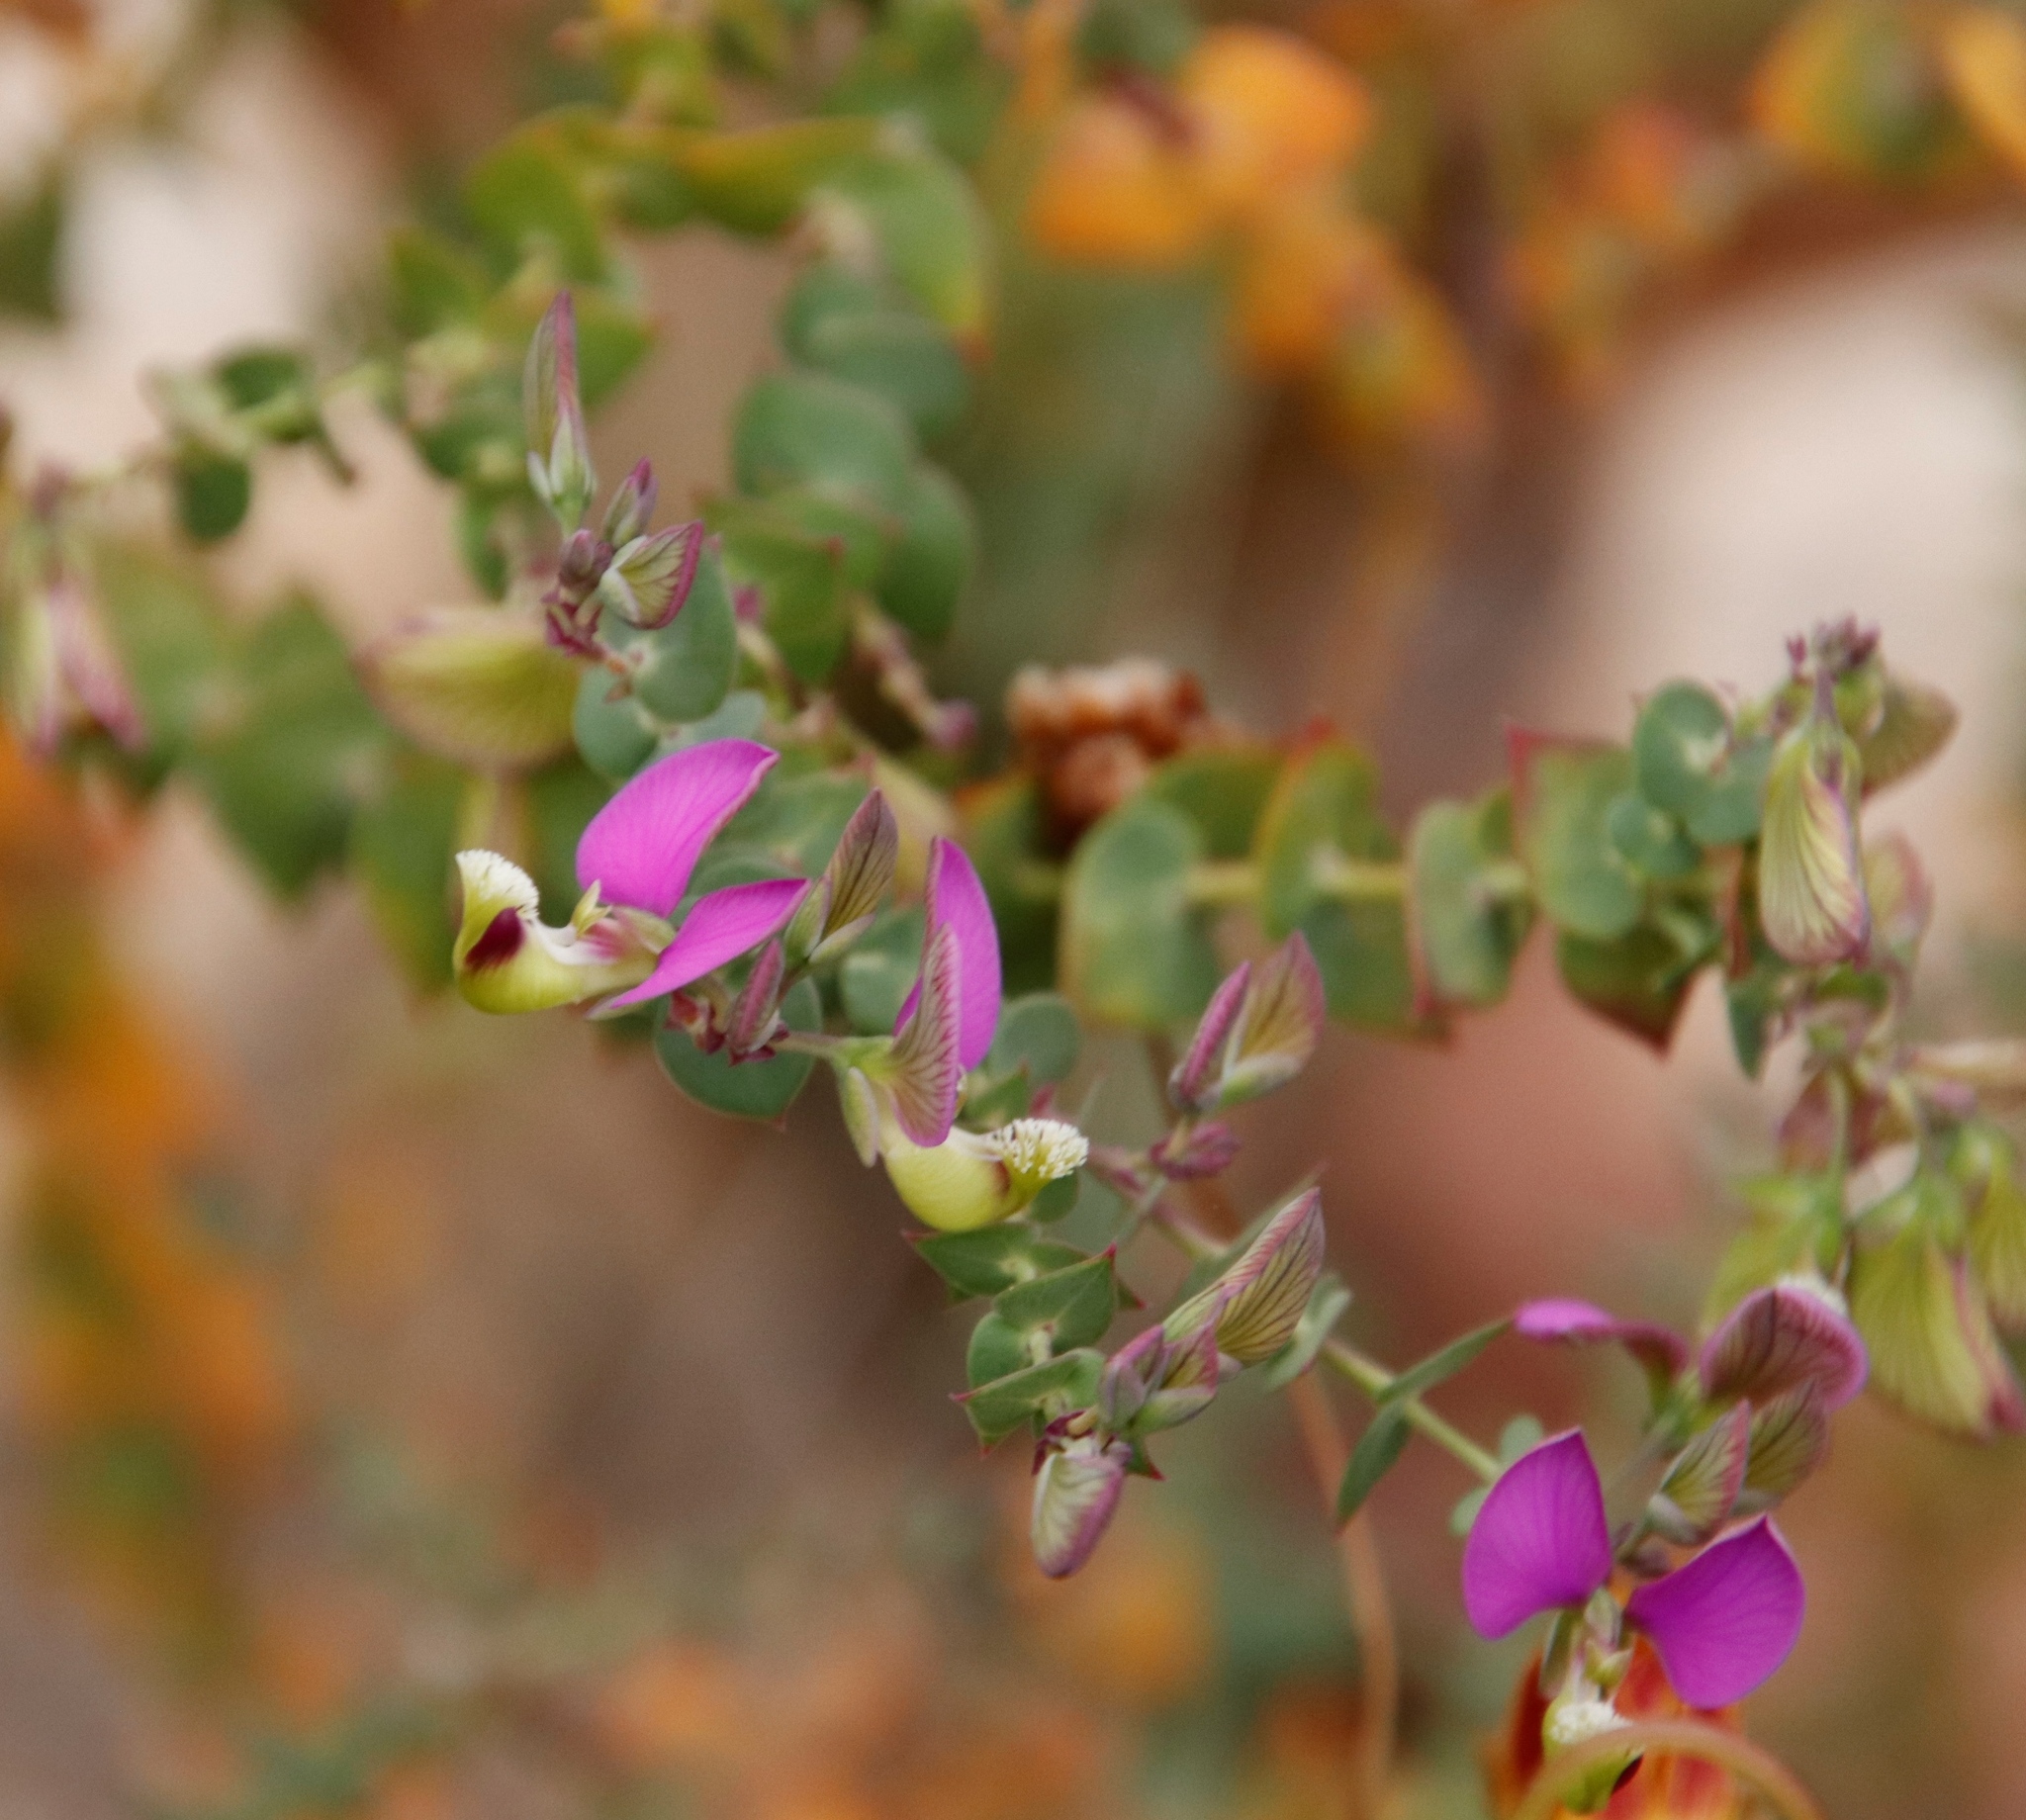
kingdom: Plantae
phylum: Tracheophyta
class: Magnoliopsida
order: Fabales
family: Polygalaceae
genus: Polygala
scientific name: Polygala fruticosa
